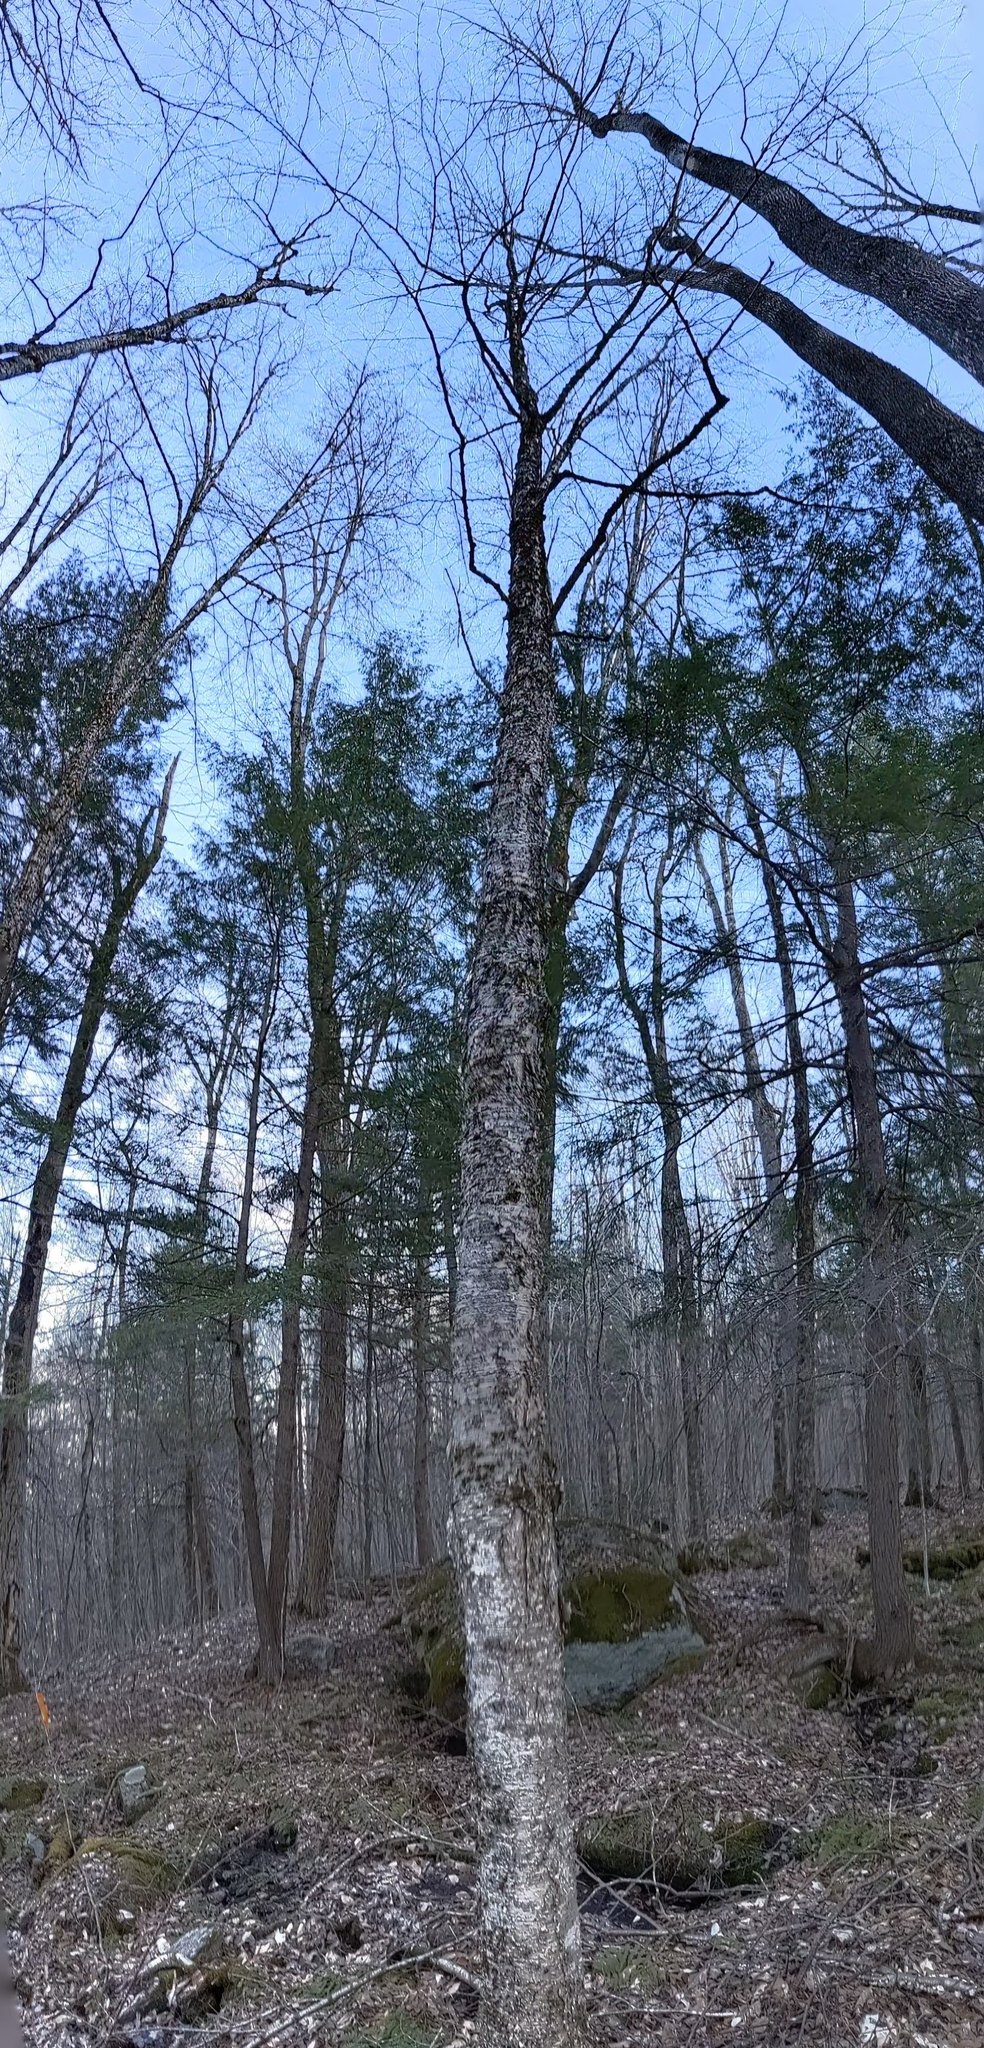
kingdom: Plantae
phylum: Tracheophyta
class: Magnoliopsida
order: Fagales
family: Betulaceae
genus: Betula
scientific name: Betula alleghaniensis
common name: Yellow birch
